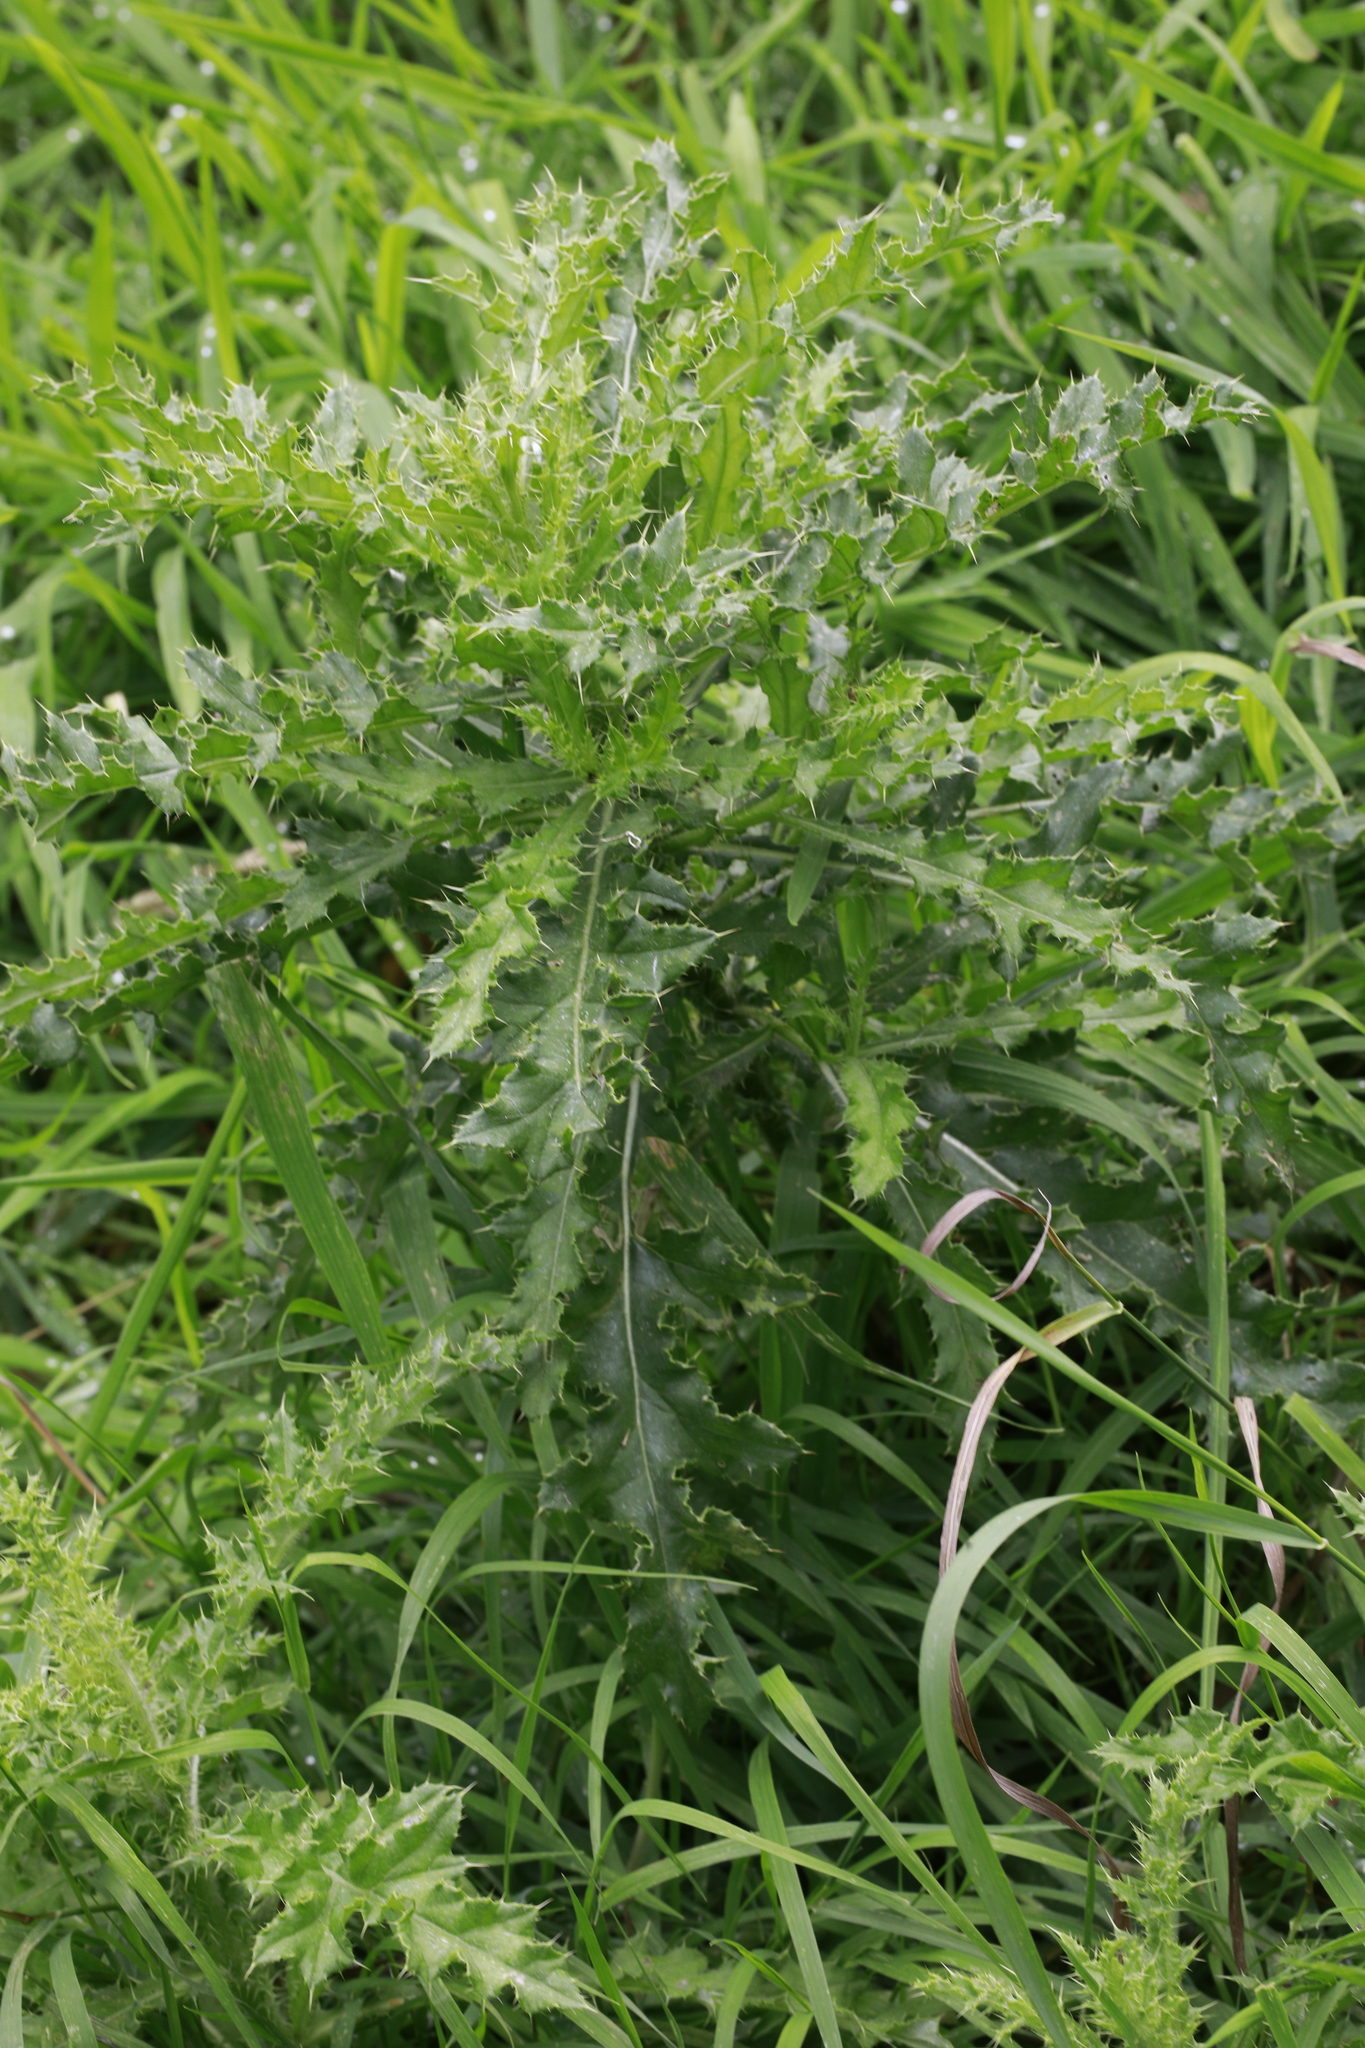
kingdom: Plantae
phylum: Tracheophyta
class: Magnoliopsida
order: Asterales
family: Asteraceae
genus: Cirsium
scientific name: Cirsium arvense
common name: Creeping thistle
